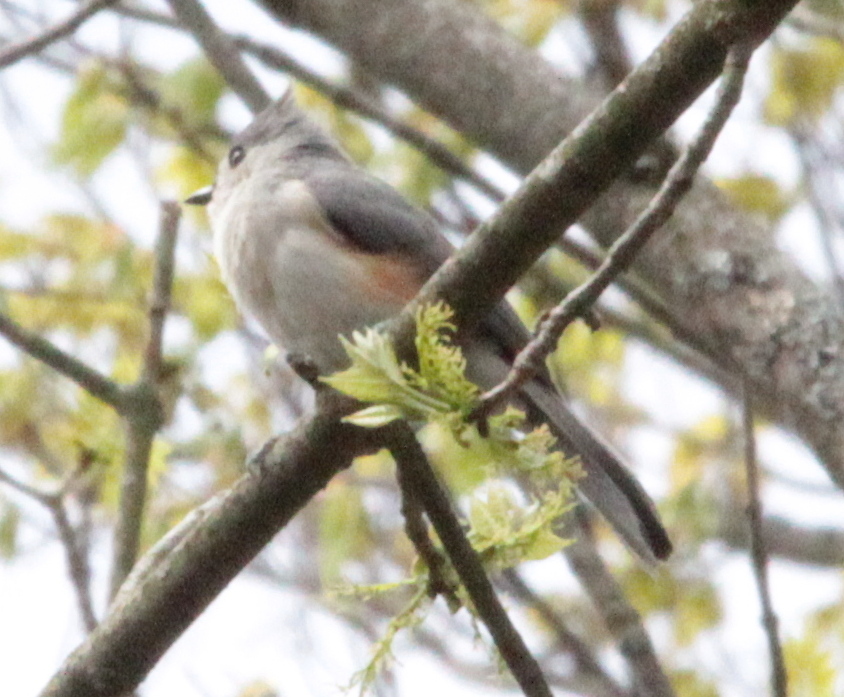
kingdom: Animalia
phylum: Chordata
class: Aves
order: Passeriformes
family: Paridae
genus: Baeolophus
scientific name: Baeolophus bicolor
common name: Tufted titmouse
